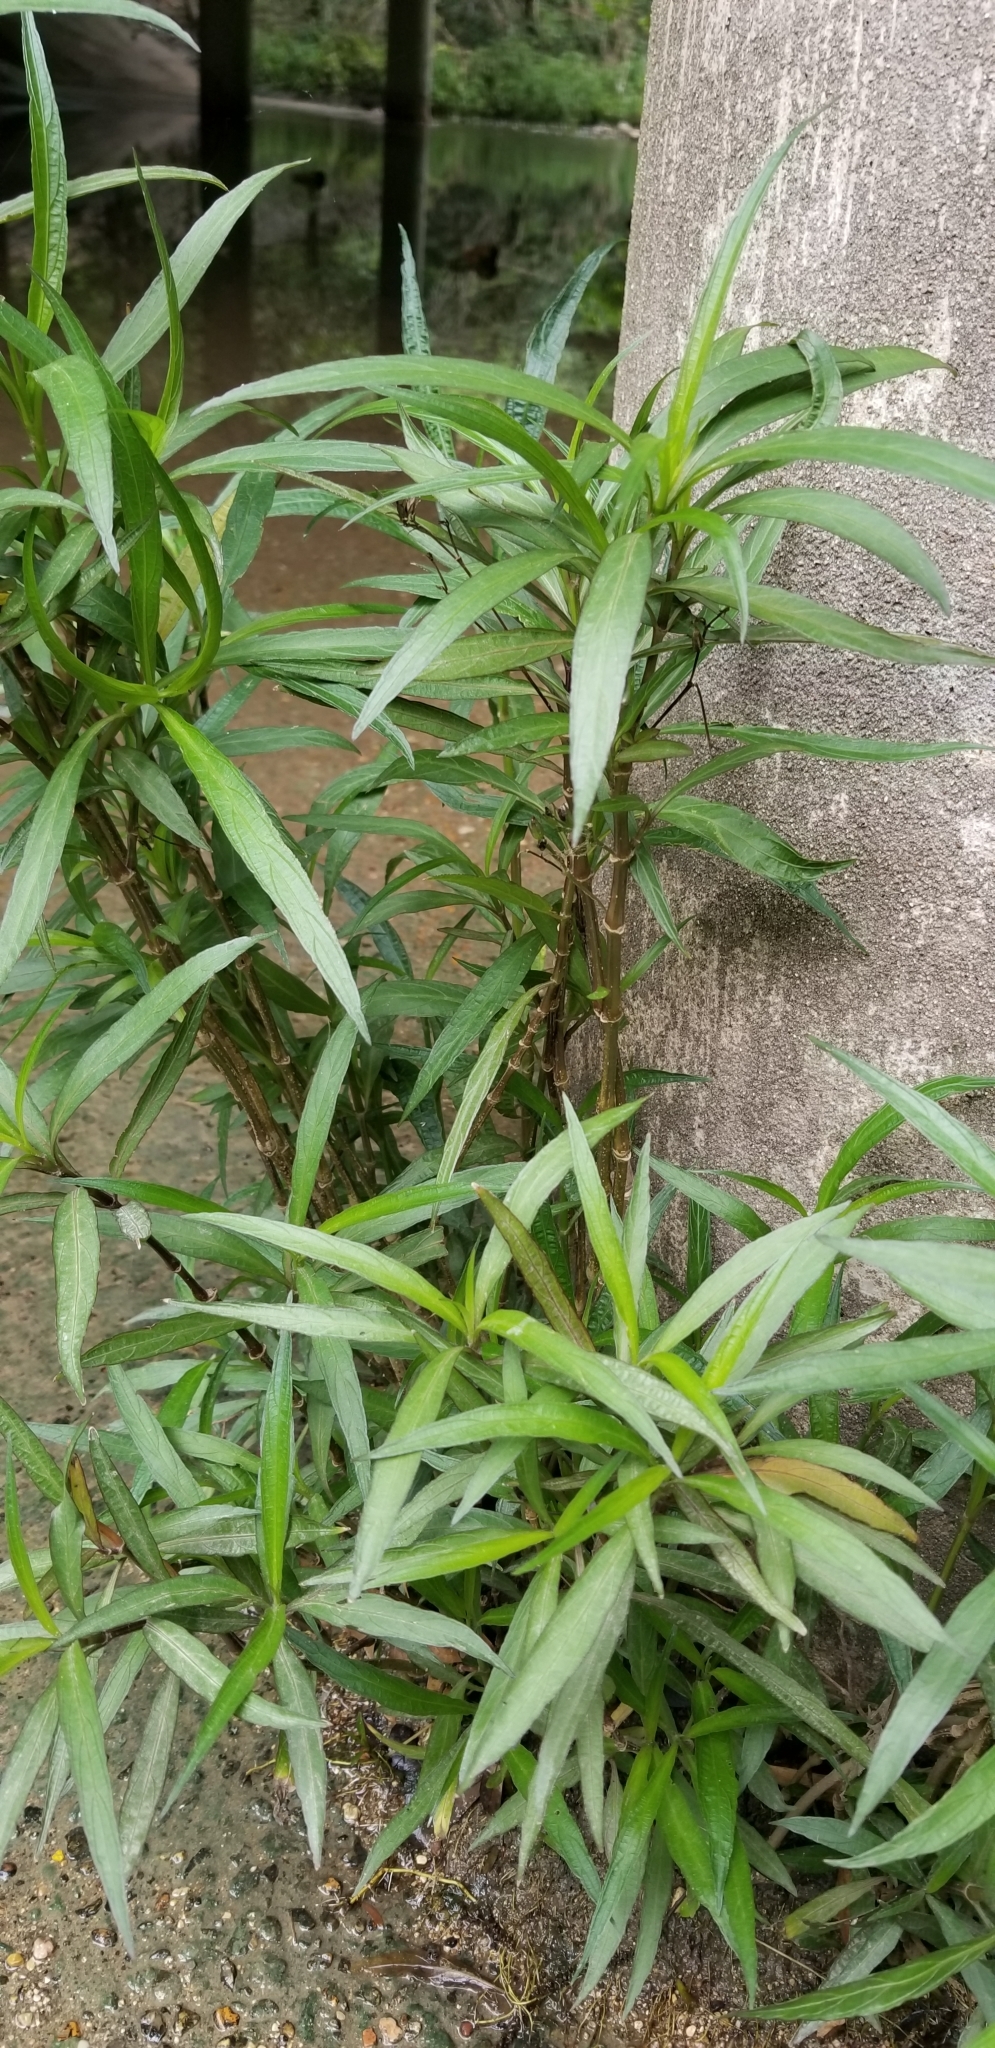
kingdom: Plantae
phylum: Tracheophyta
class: Magnoliopsida
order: Lamiales
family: Acanthaceae
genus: Ruellia
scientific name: Ruellia simplex
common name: Softseed wild petunia
